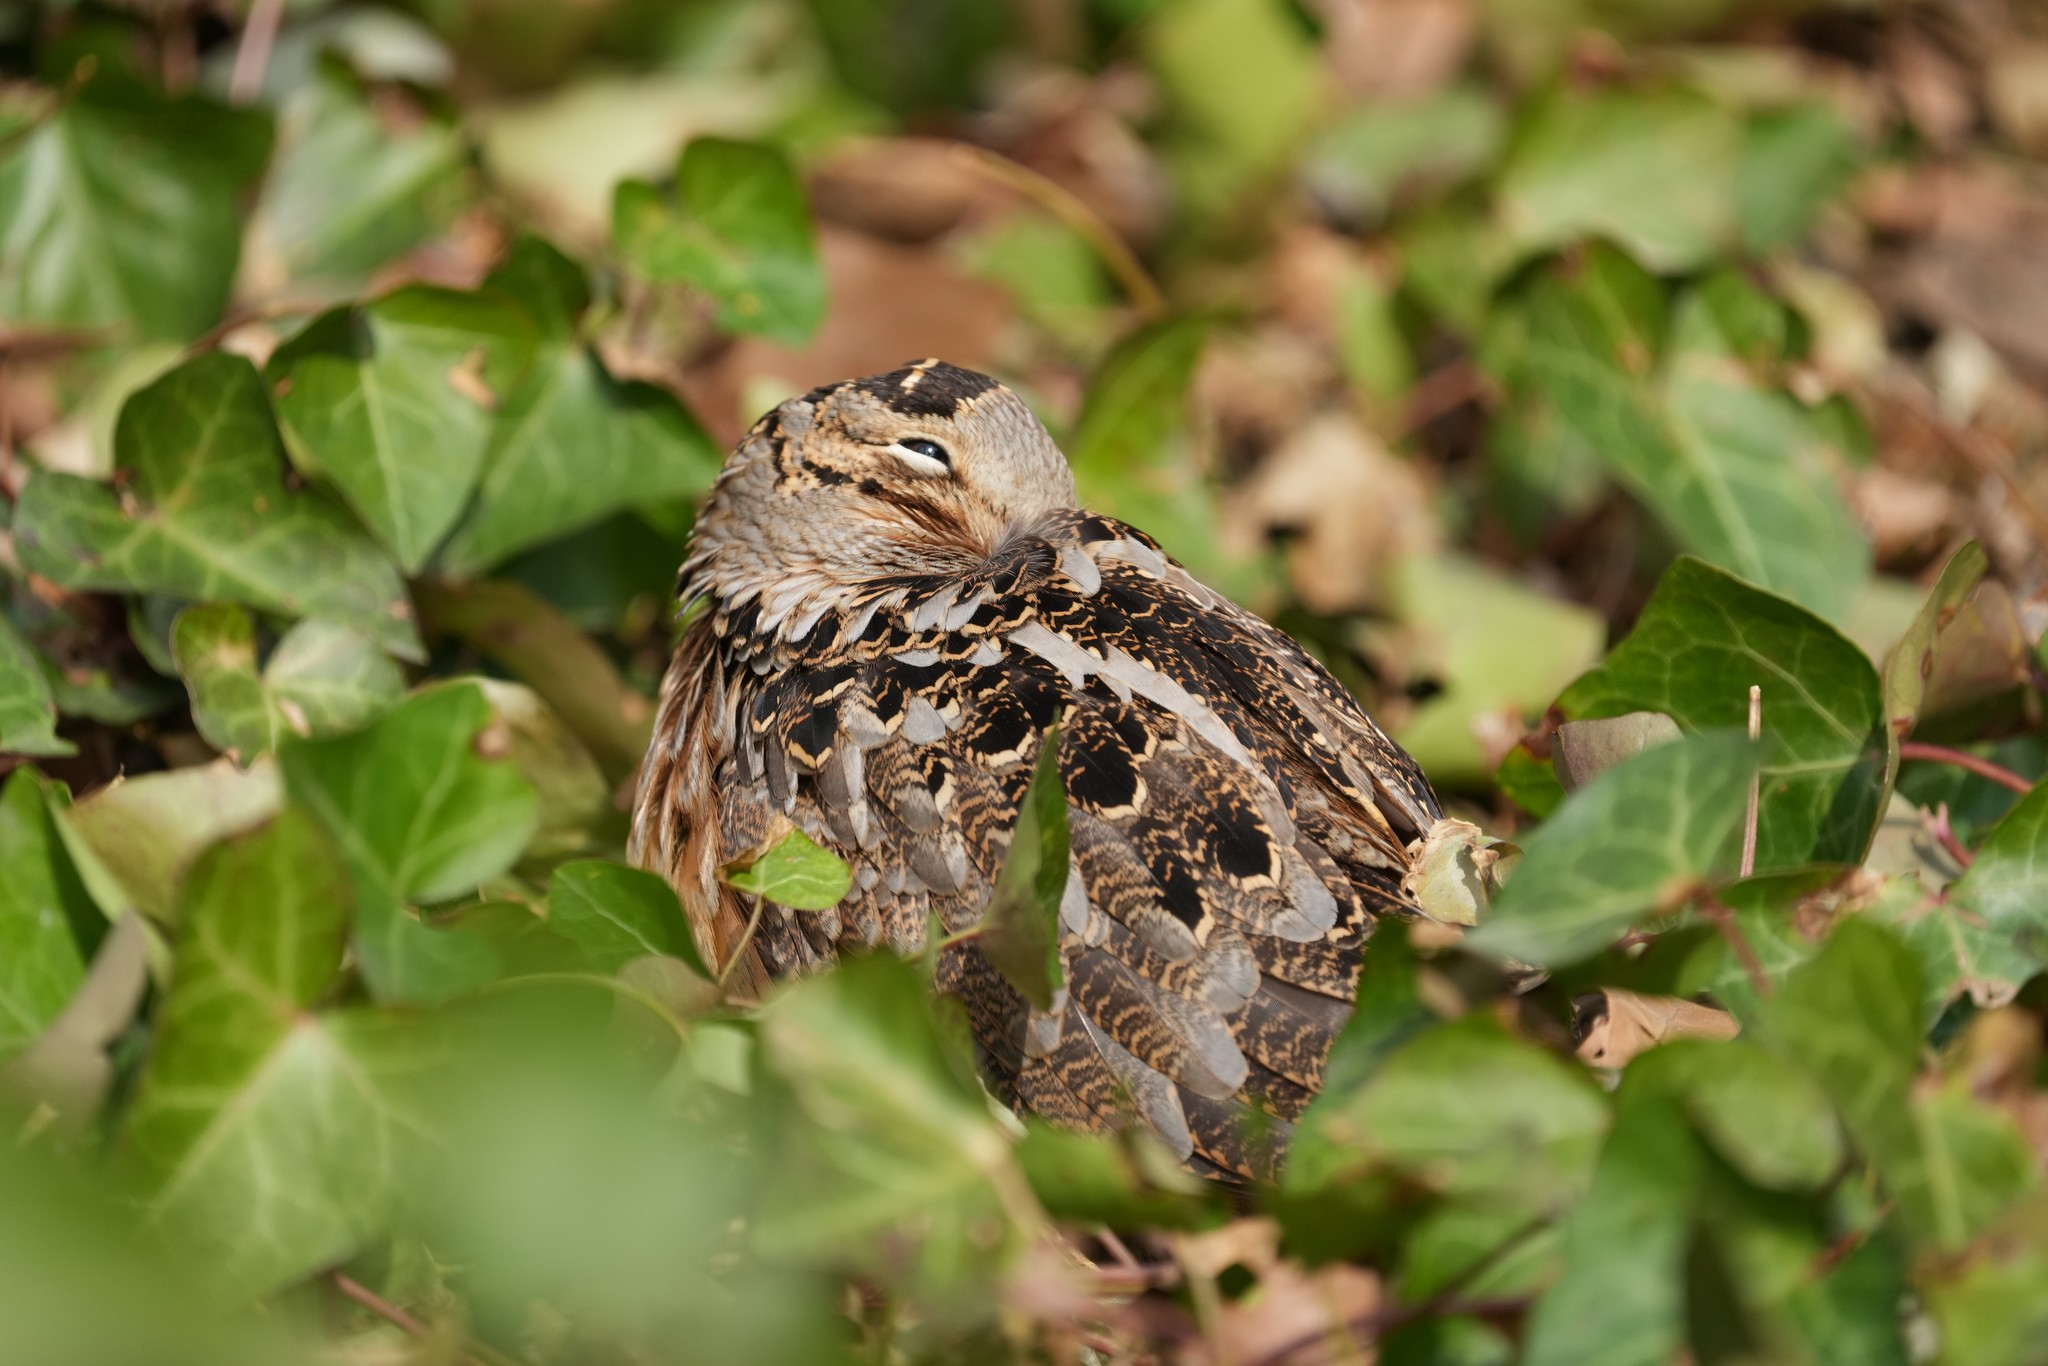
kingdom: Animalia
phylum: Chordata
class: Aves
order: Charadriiformes
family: Scolopacidae
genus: Scolopax
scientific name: Scolopax minor
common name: American woodcock
